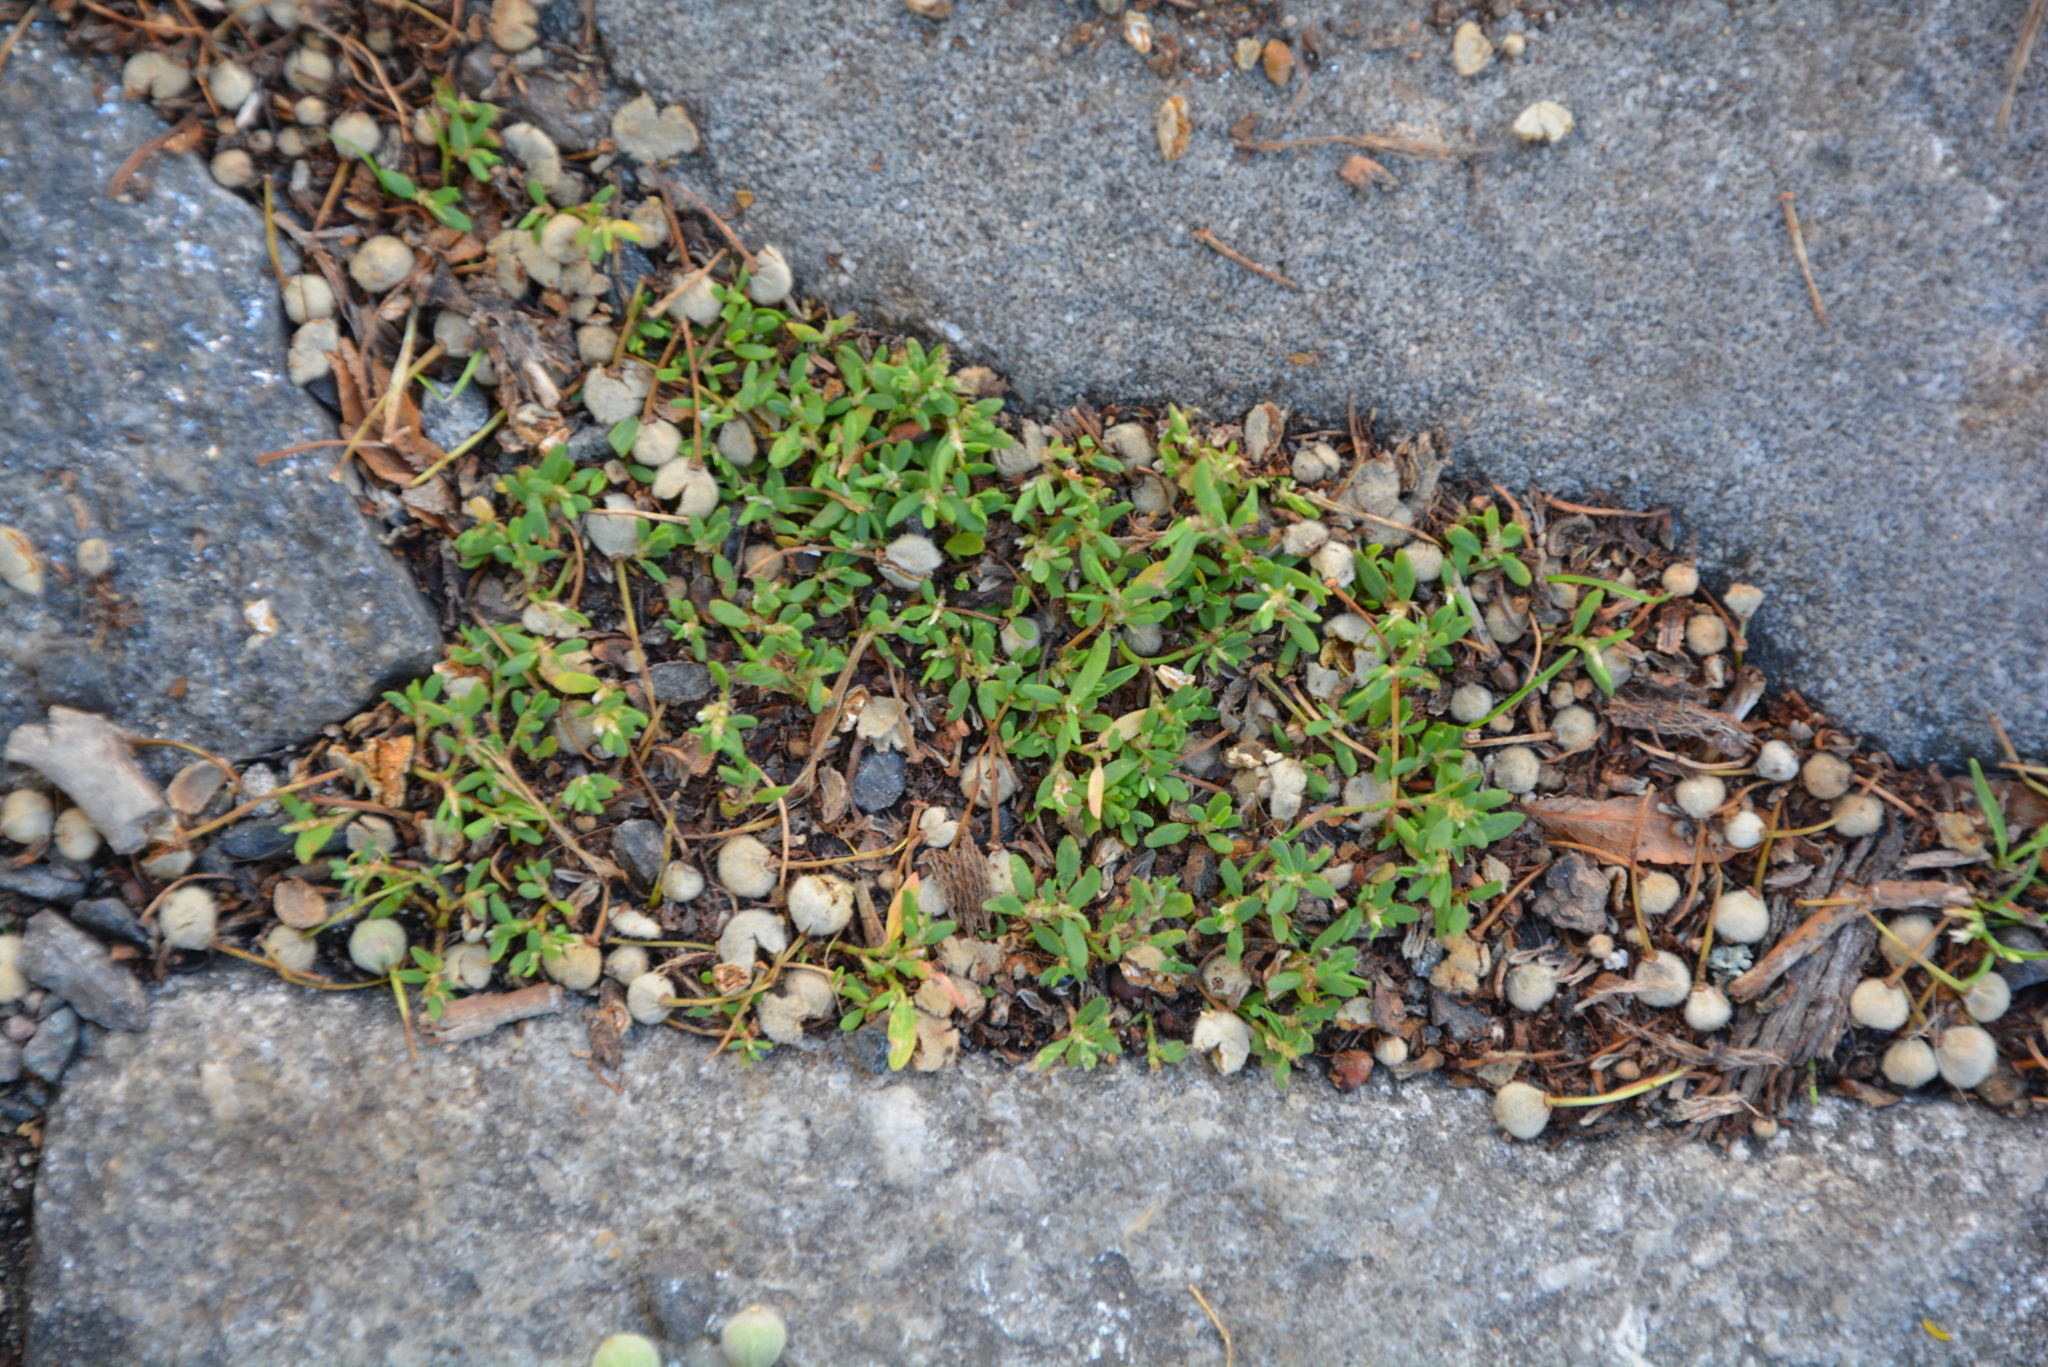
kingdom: Plantae
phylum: Tracheophyta
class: Magnoliopsida
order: Caryophyllales
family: Polygonaceae
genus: Polygonum
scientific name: Polygonum
